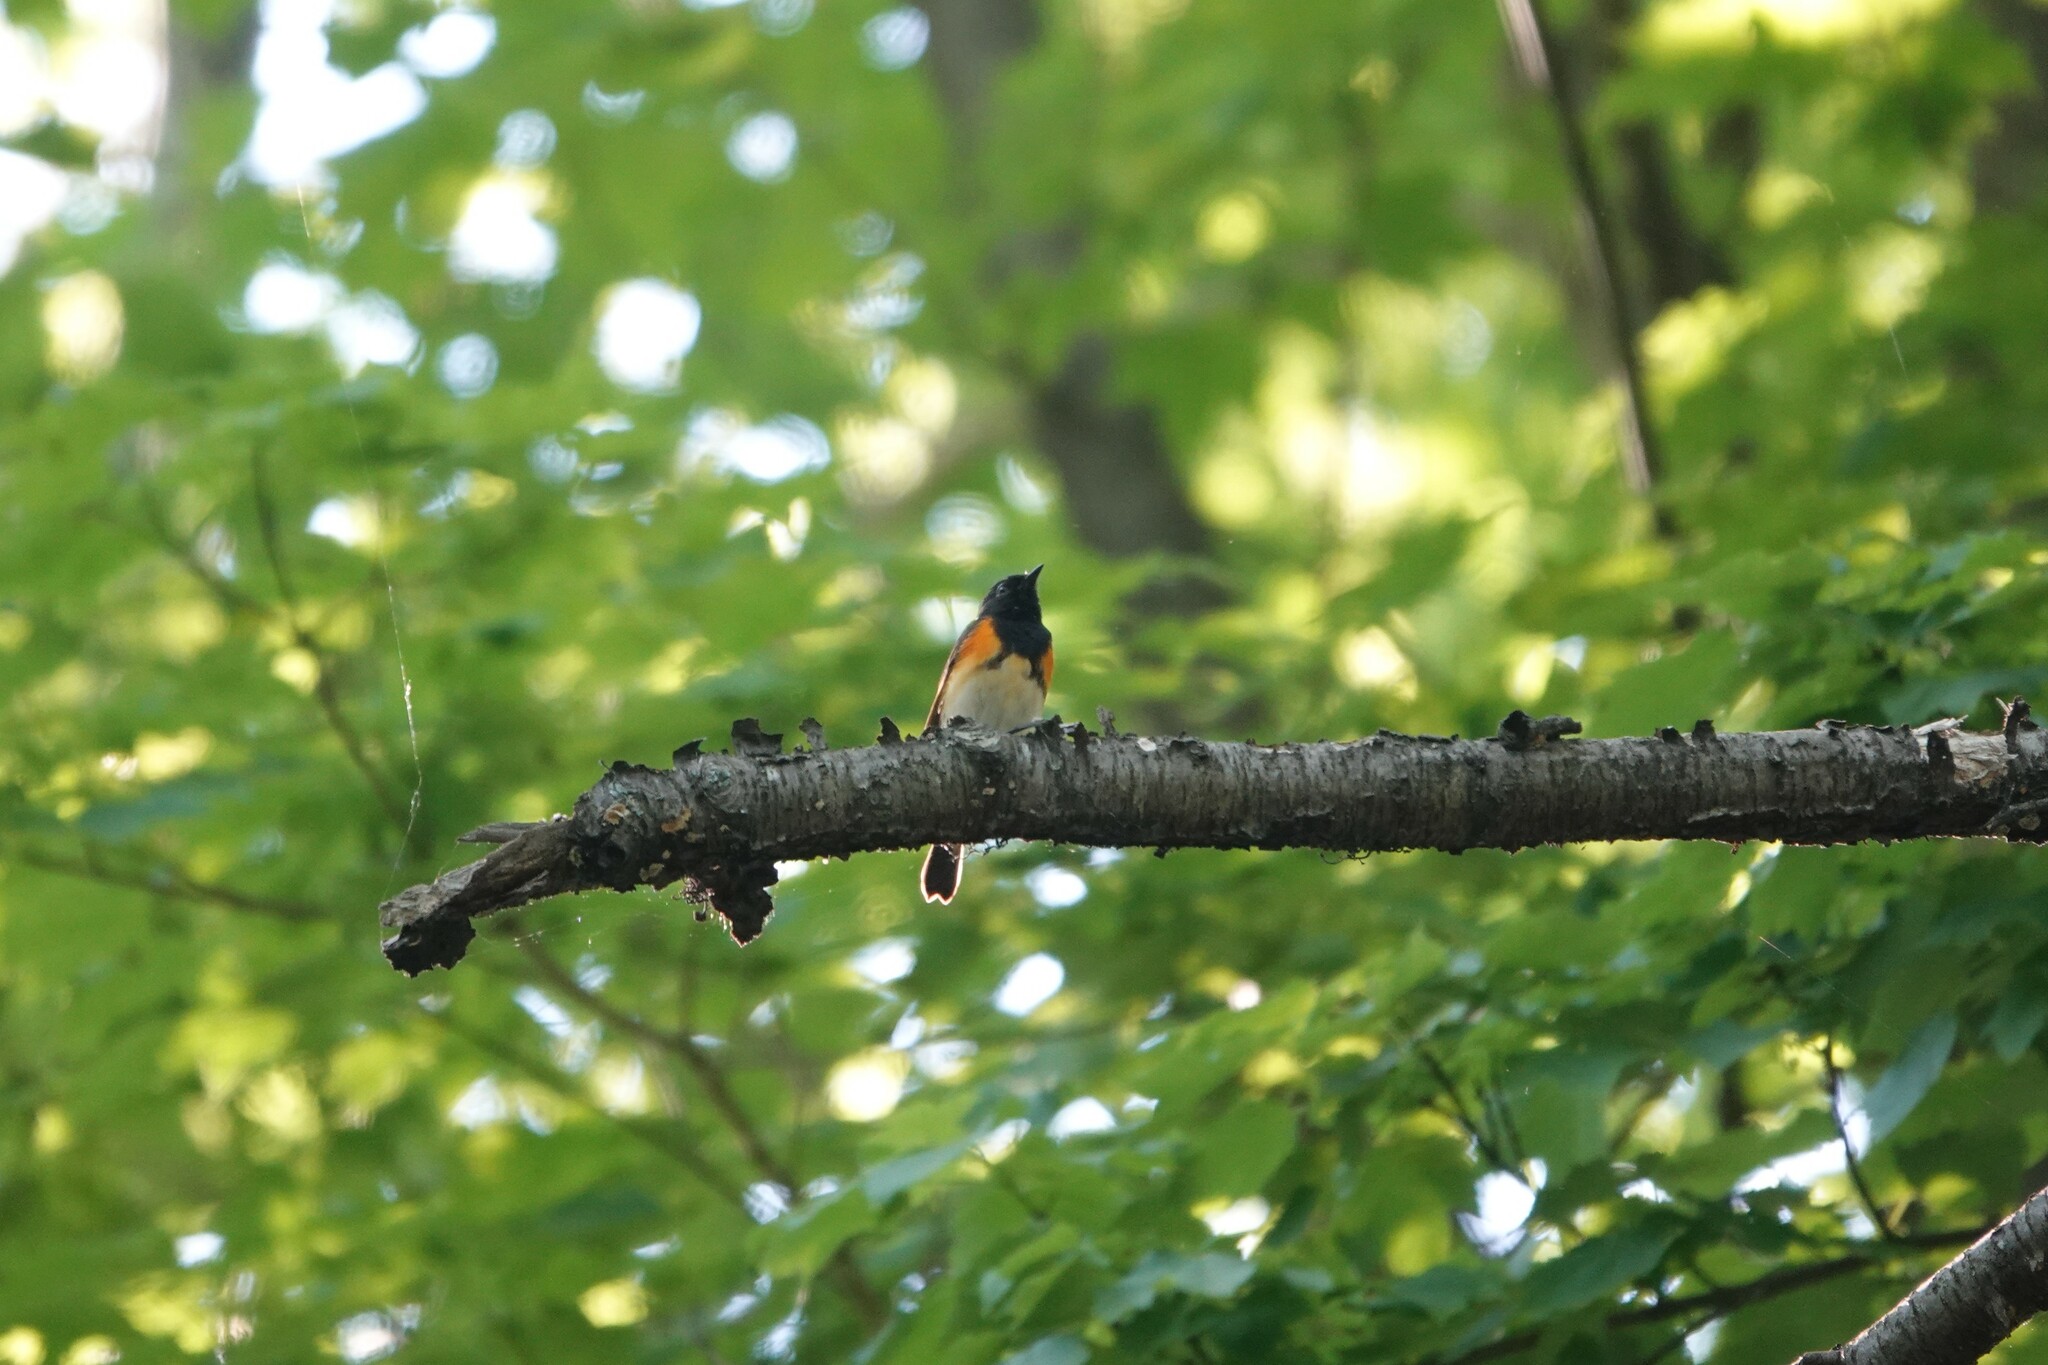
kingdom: Animalia
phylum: Chordata
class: Aves
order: Passeriformes
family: Parulidae
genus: Setophaga
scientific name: Setophaga ruticilla
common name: American redstart
